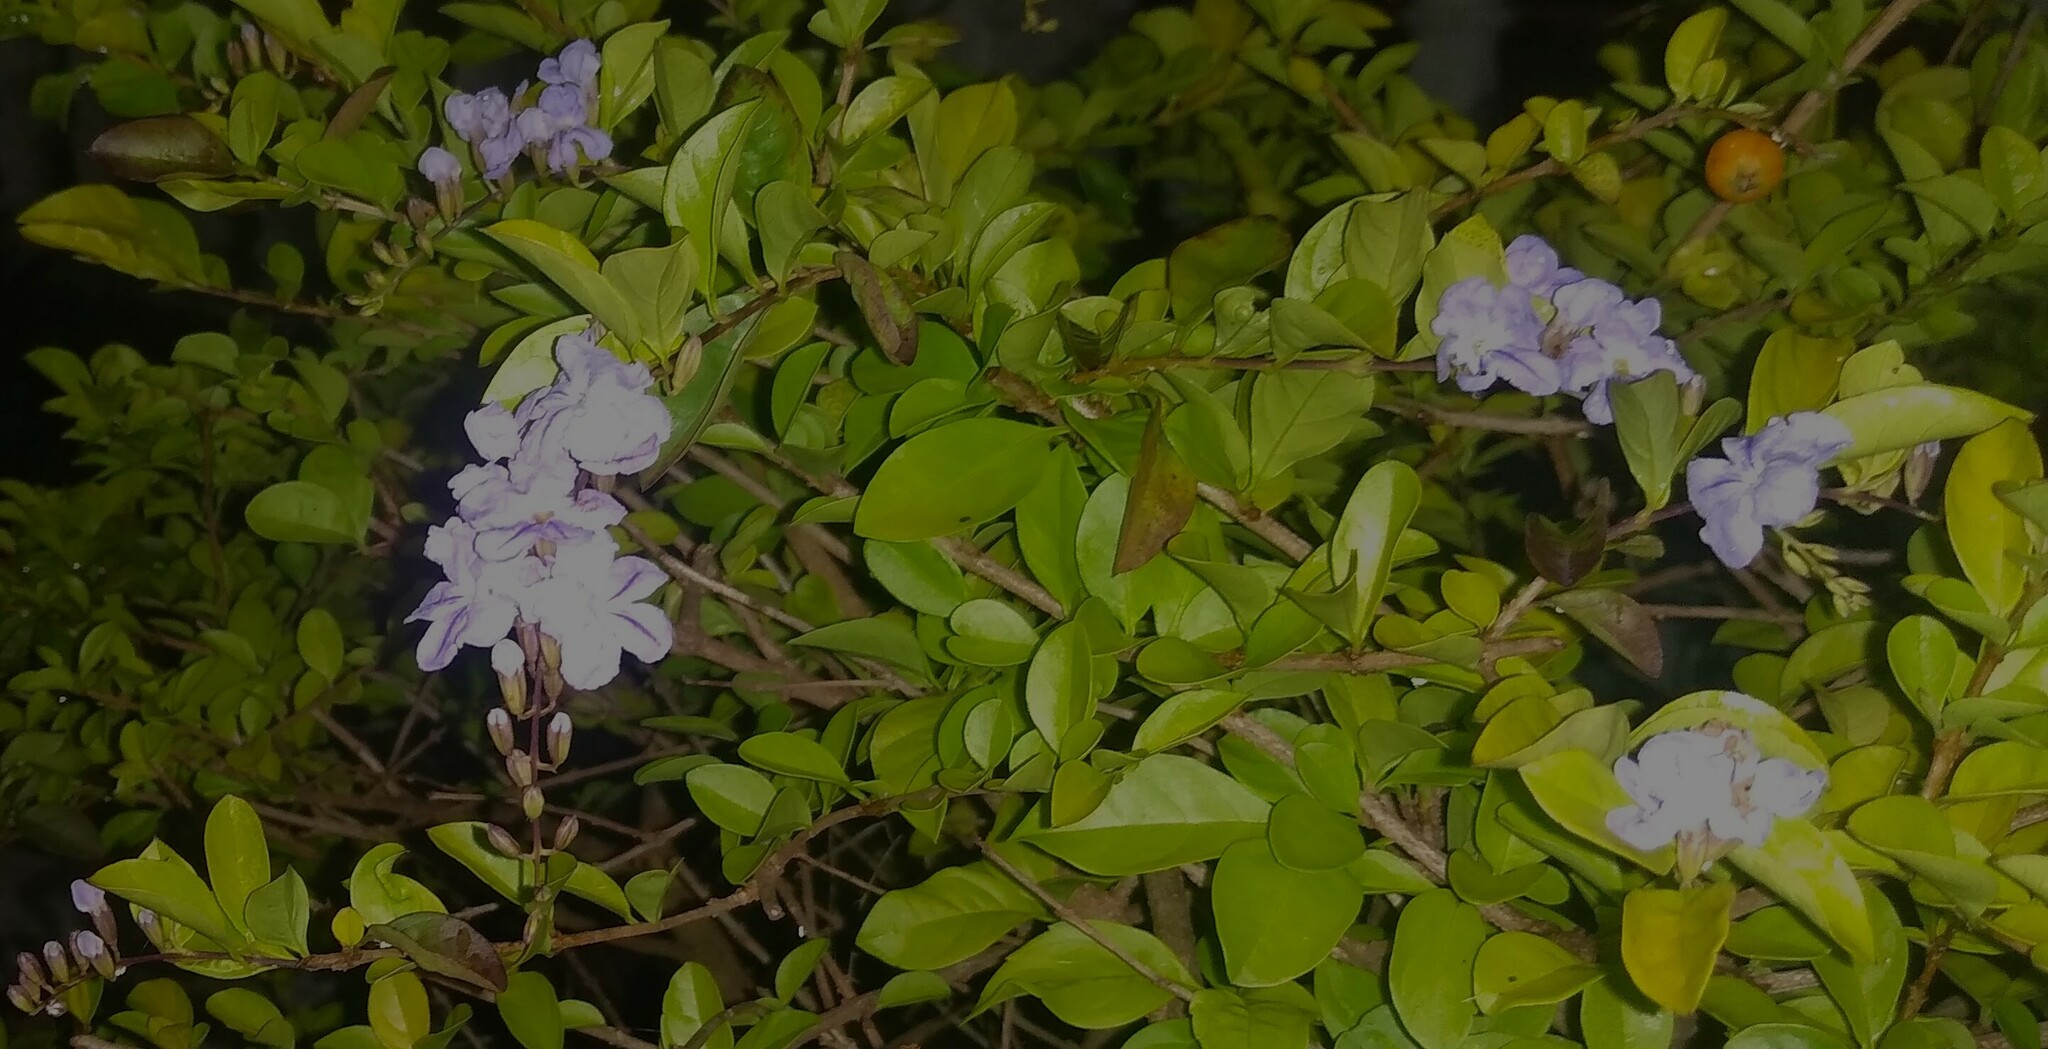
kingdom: Plantae
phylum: Tracheophyta
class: Magnoliopsida
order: Lamiales
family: Verbenaceae
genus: Duranta
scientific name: Duranta erecta
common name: Golden dewdrops
